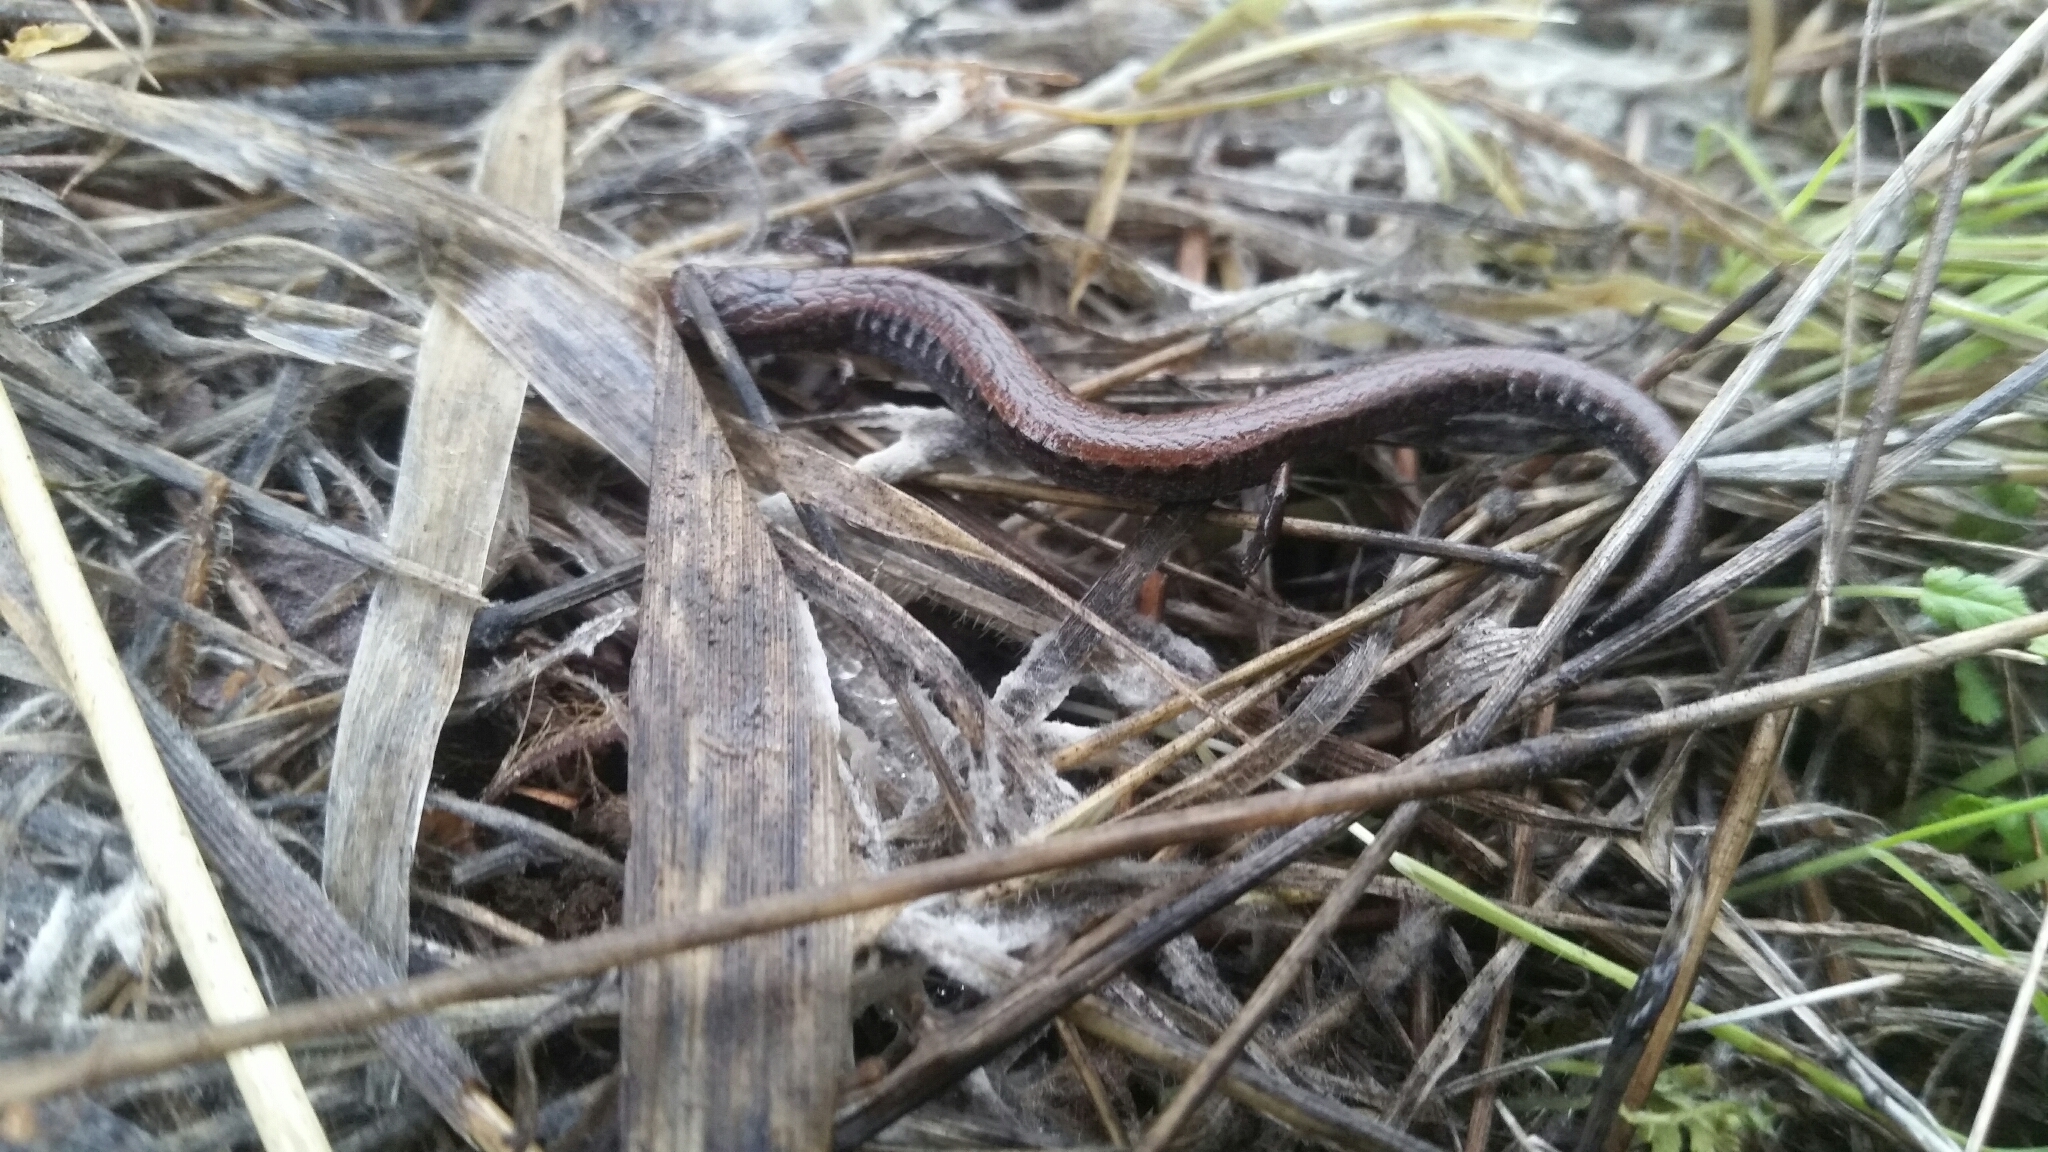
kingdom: Animalia
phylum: Chordata
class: Amphibia
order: Caudata
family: Plethodontidae
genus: Batrachoseps
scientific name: Batrachoseps attenuatus
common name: California slender salamander
